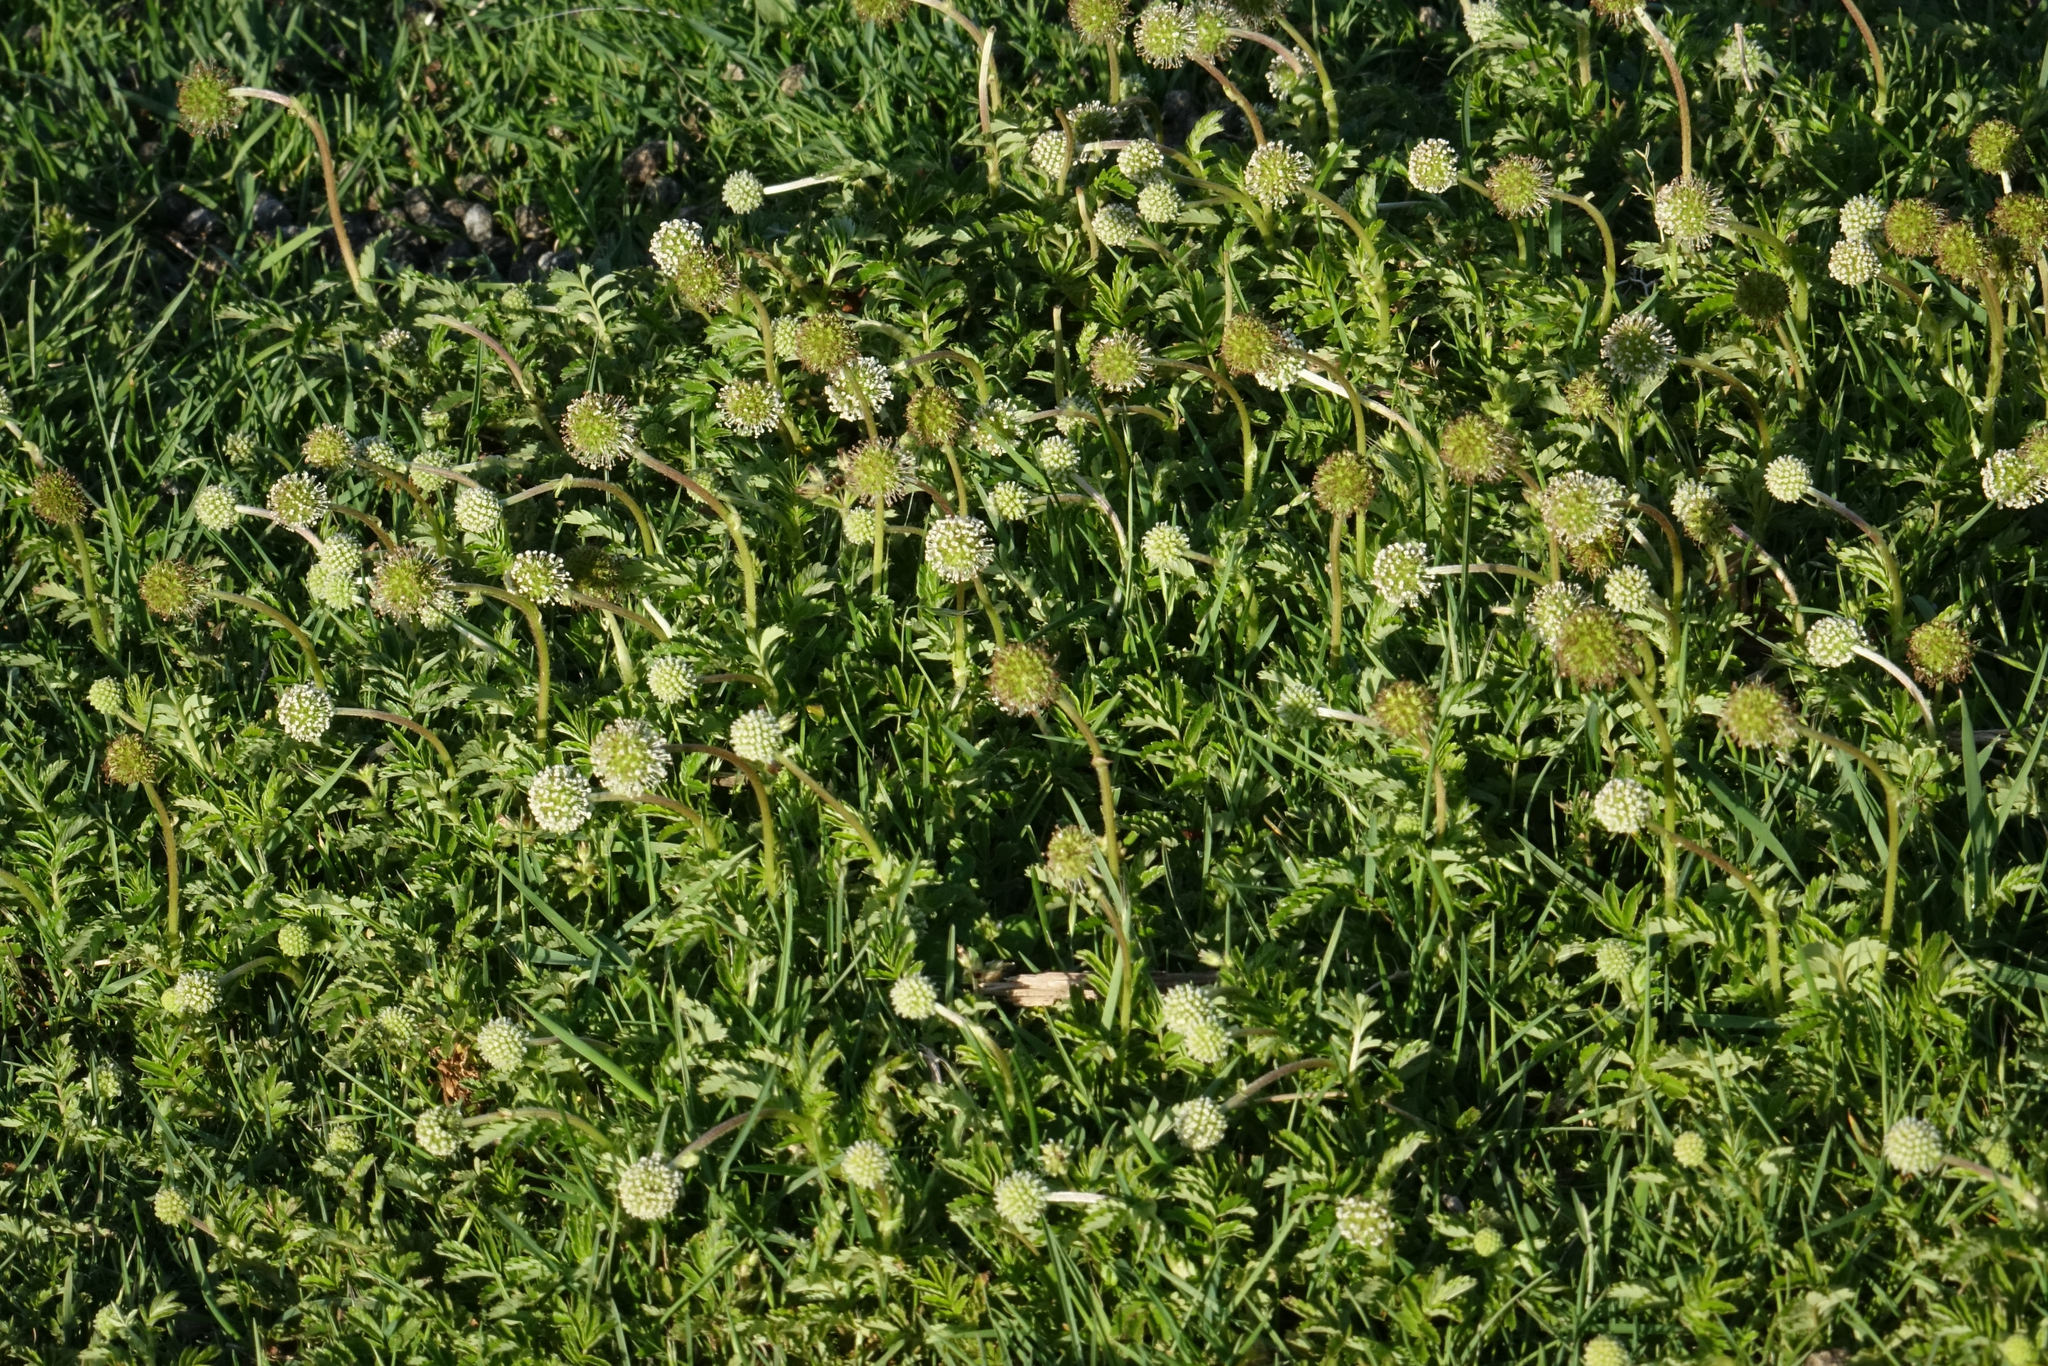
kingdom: Plantae
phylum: Tracheophyta
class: Magnoliopsida
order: Rosales
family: Rosaceae
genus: Acaena
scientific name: Acaena novae-zelandiae
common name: Pirri-pirri-bur
